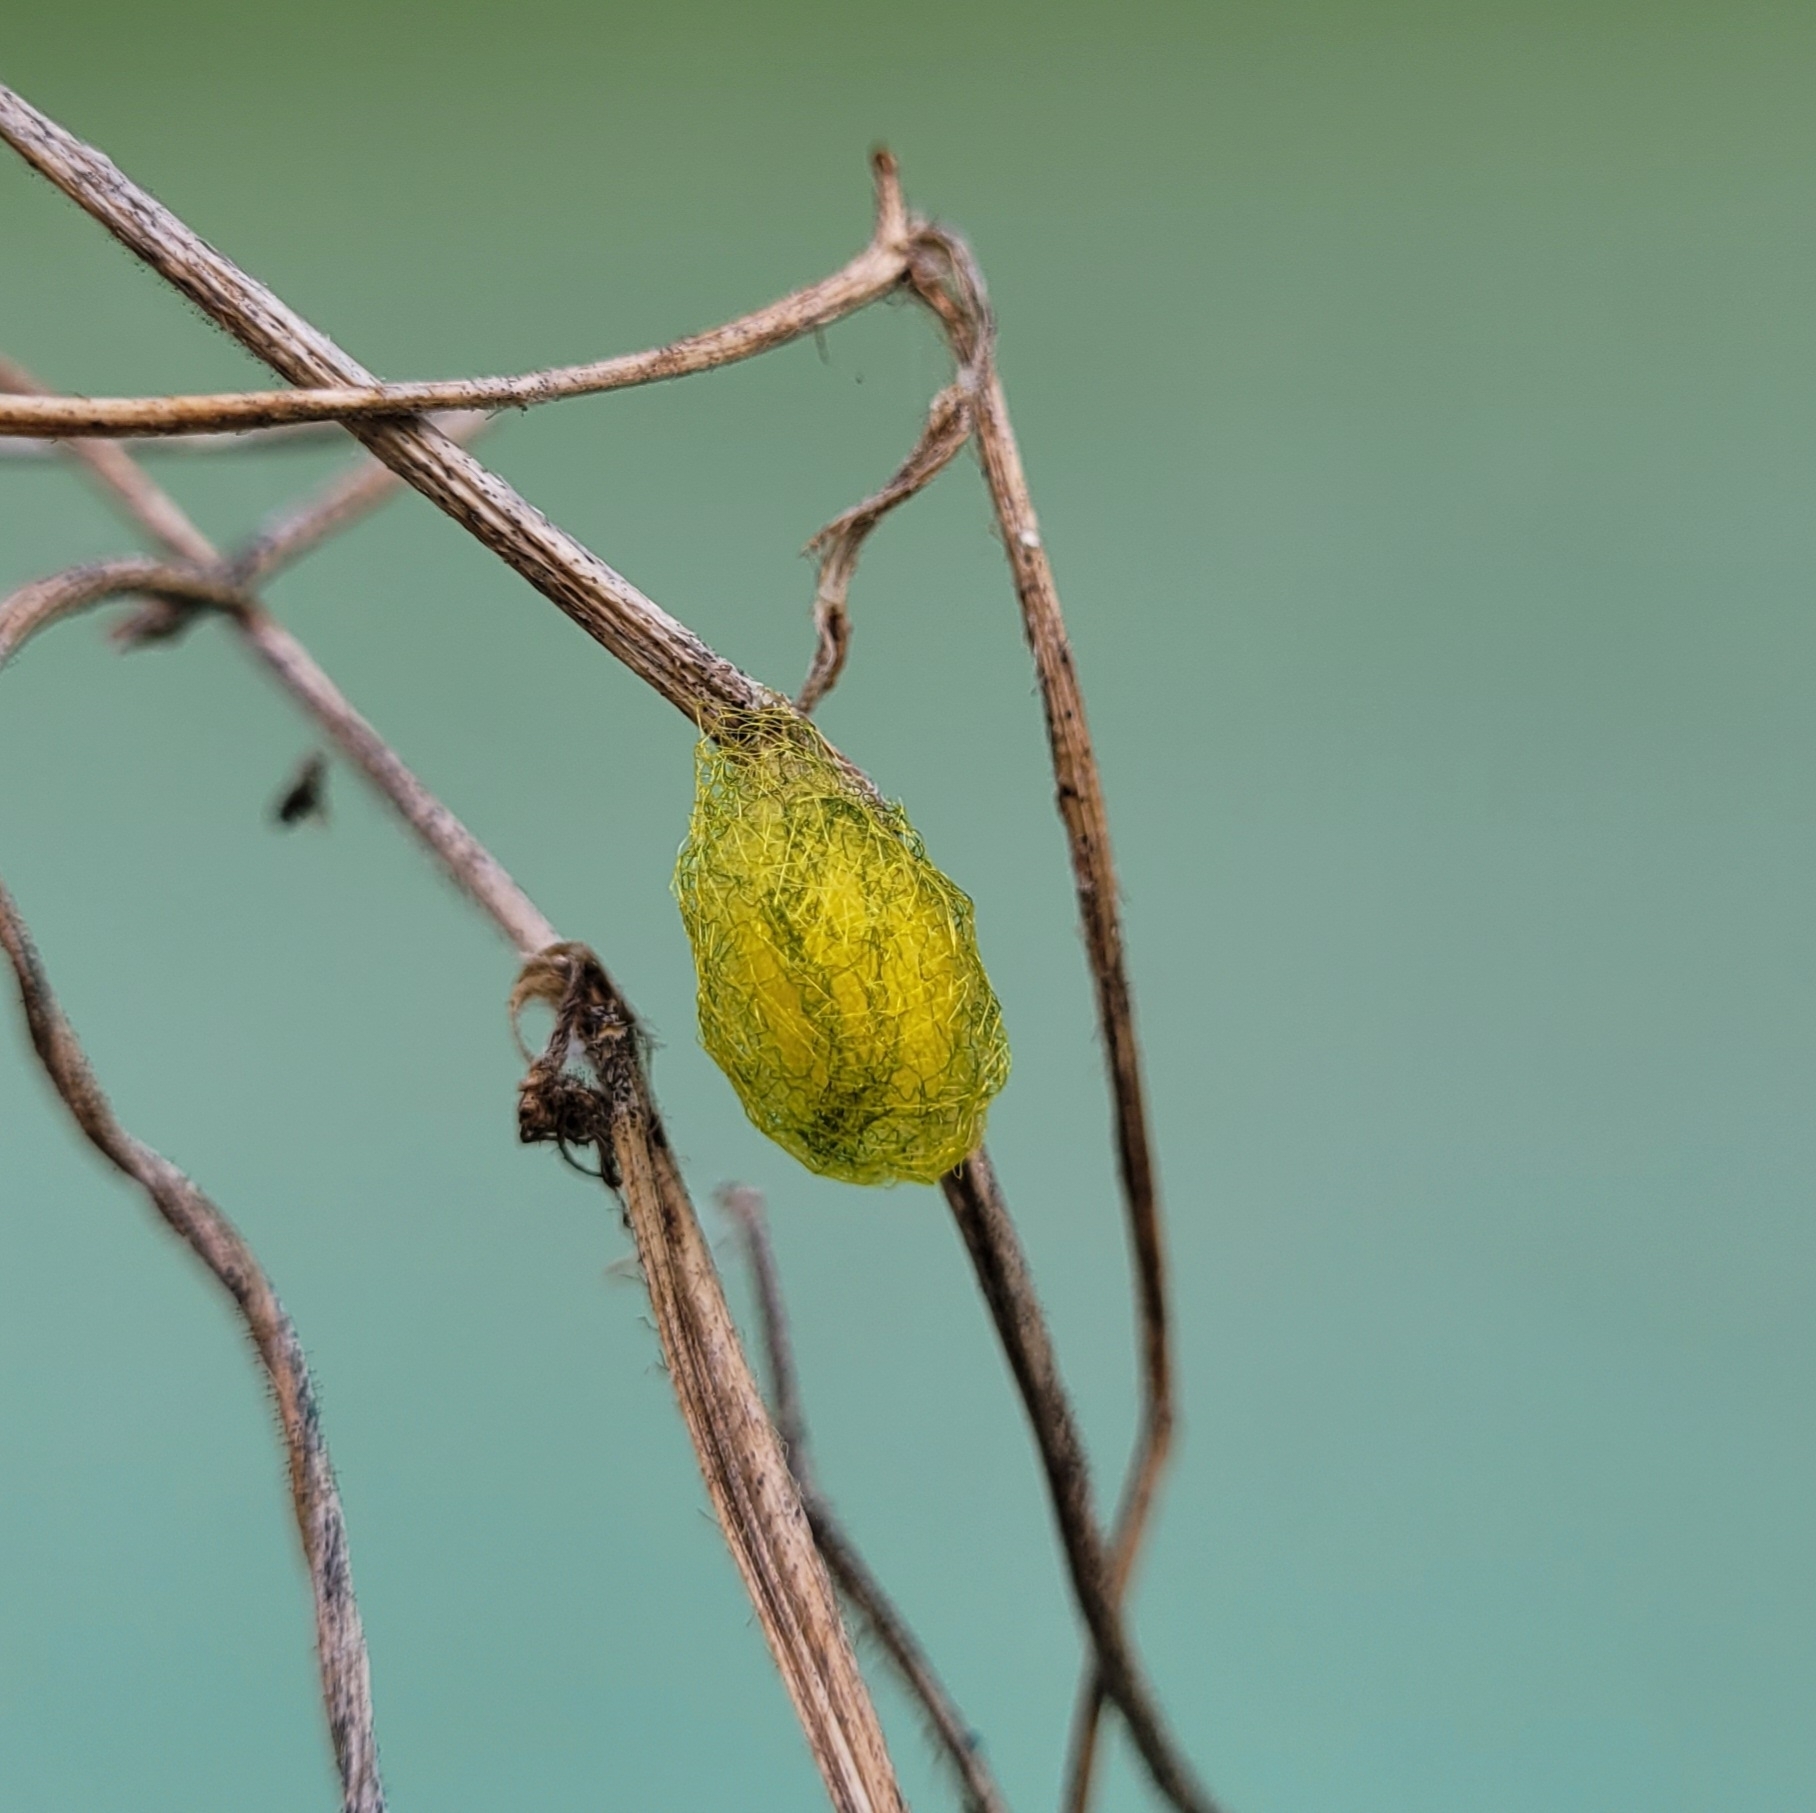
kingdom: Animalia
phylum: Arthropoda
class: Arachnida
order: Araneae
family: Araneidae
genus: Gasteracantha
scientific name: Gasteracantha cancriformis
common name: Orb weavers
